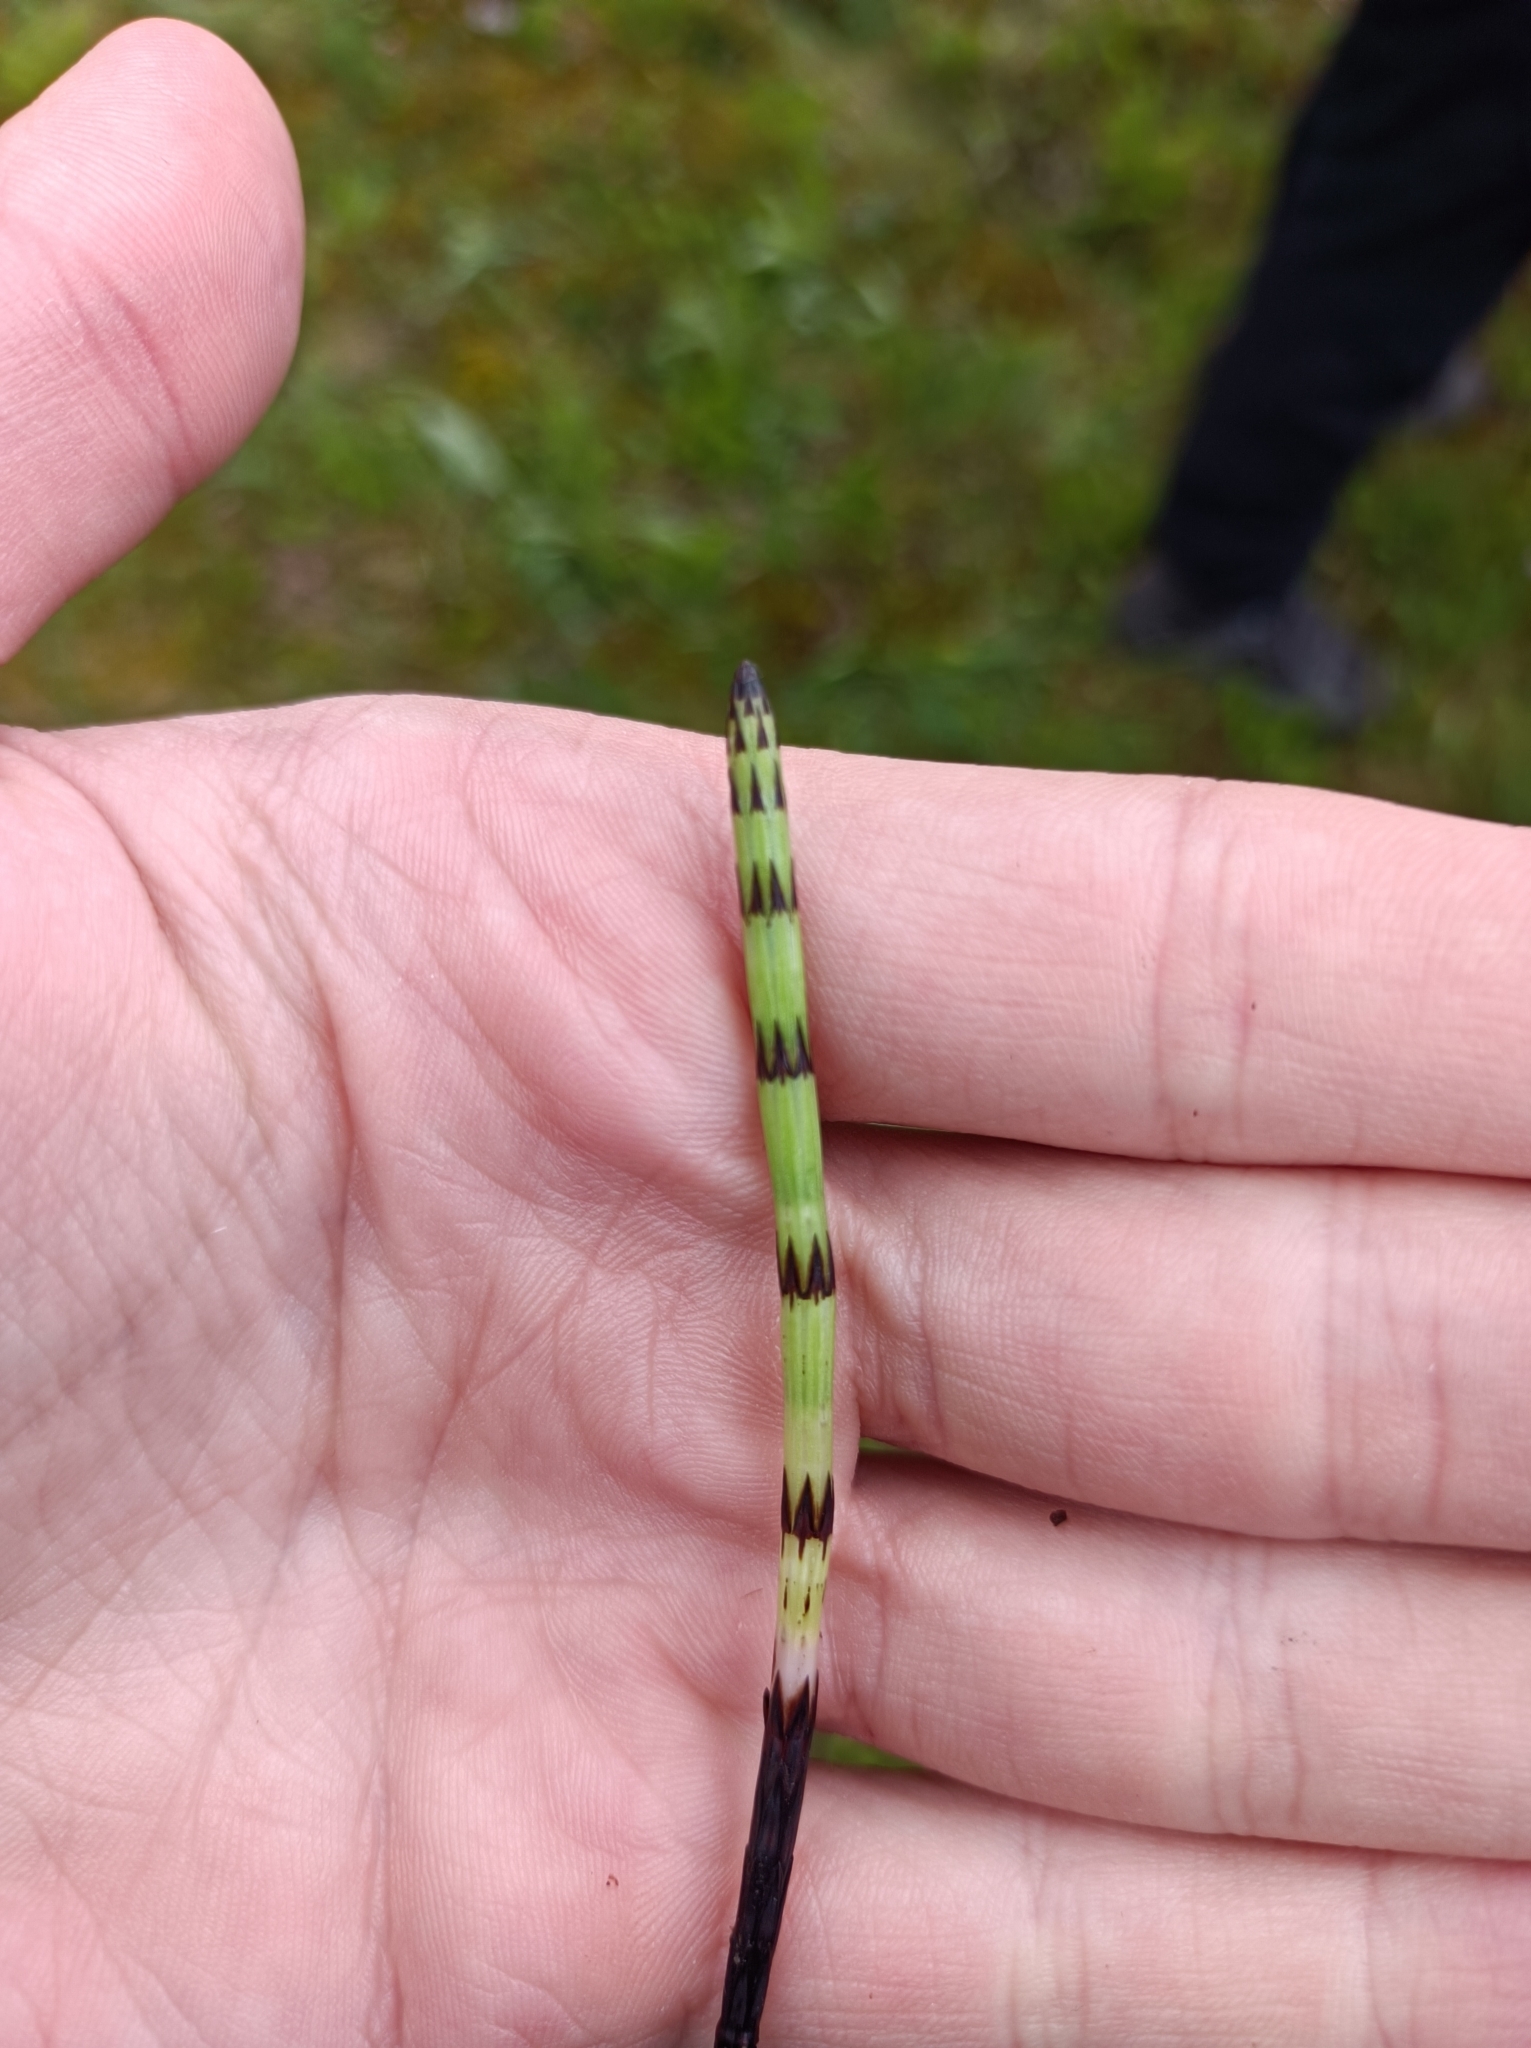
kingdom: Plantae
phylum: Tracheophyta
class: Polypodiopsida
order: Equisetales
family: Equisetaceae
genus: Equisetum
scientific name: Equisetum palustre
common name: Marsh horsetail
